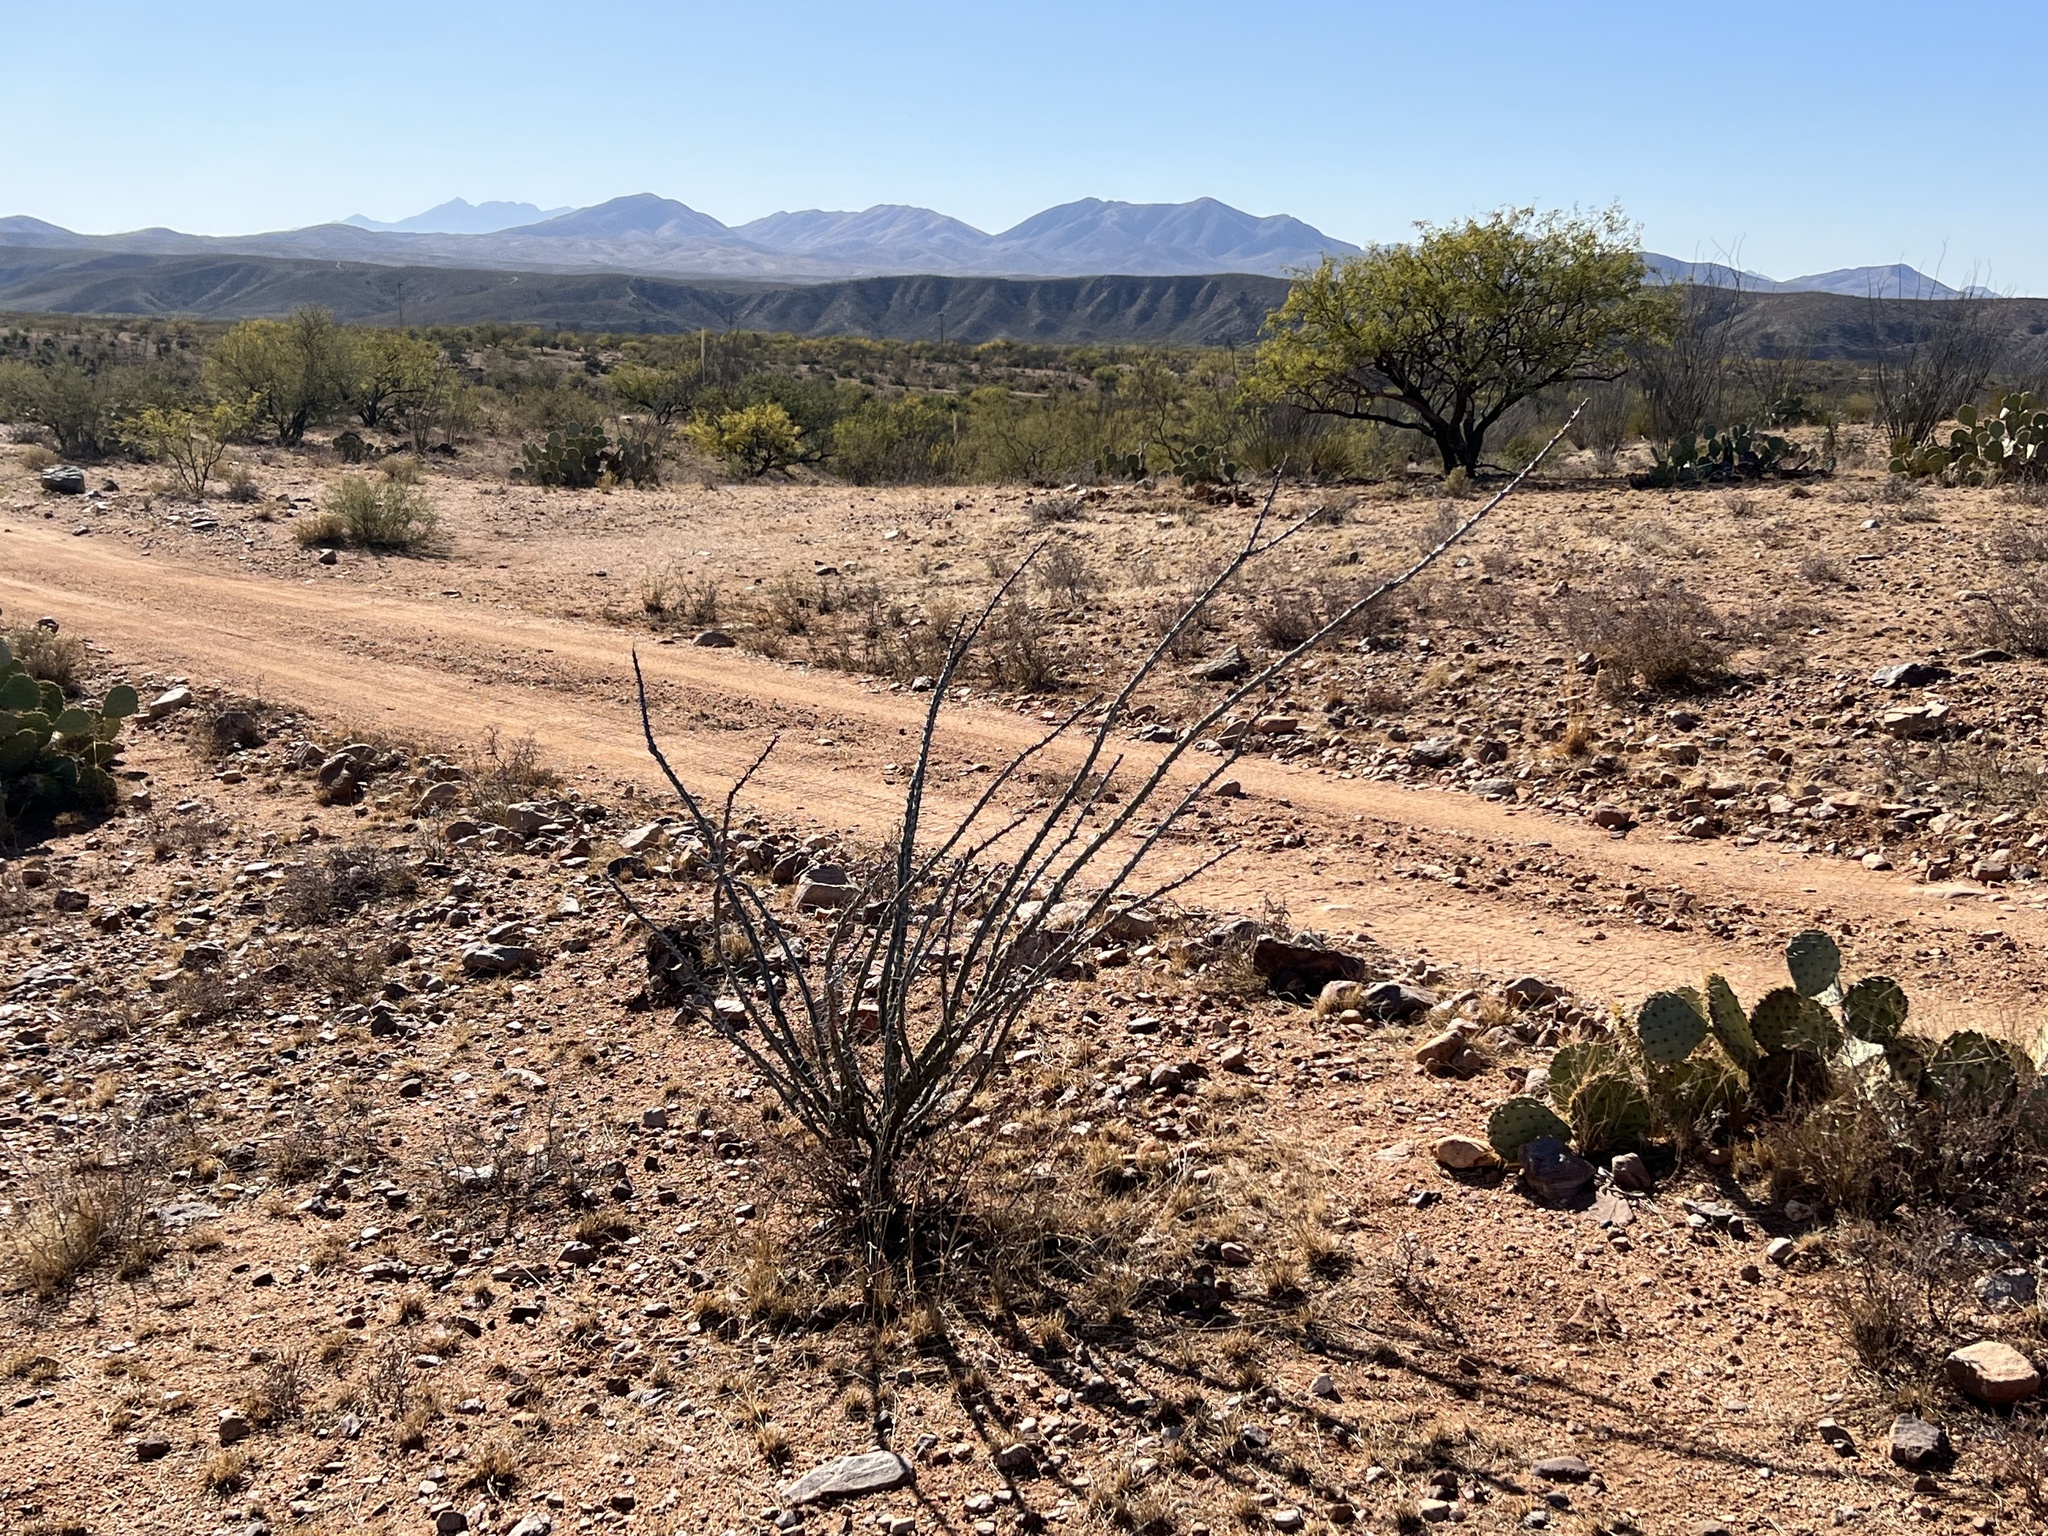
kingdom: Plantae
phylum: Tracheophyta
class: Magnoliopsida
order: Ericales
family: Fouquieriaceae
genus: Fouquieria
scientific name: Fouquieria splendens
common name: Vine-cactus
